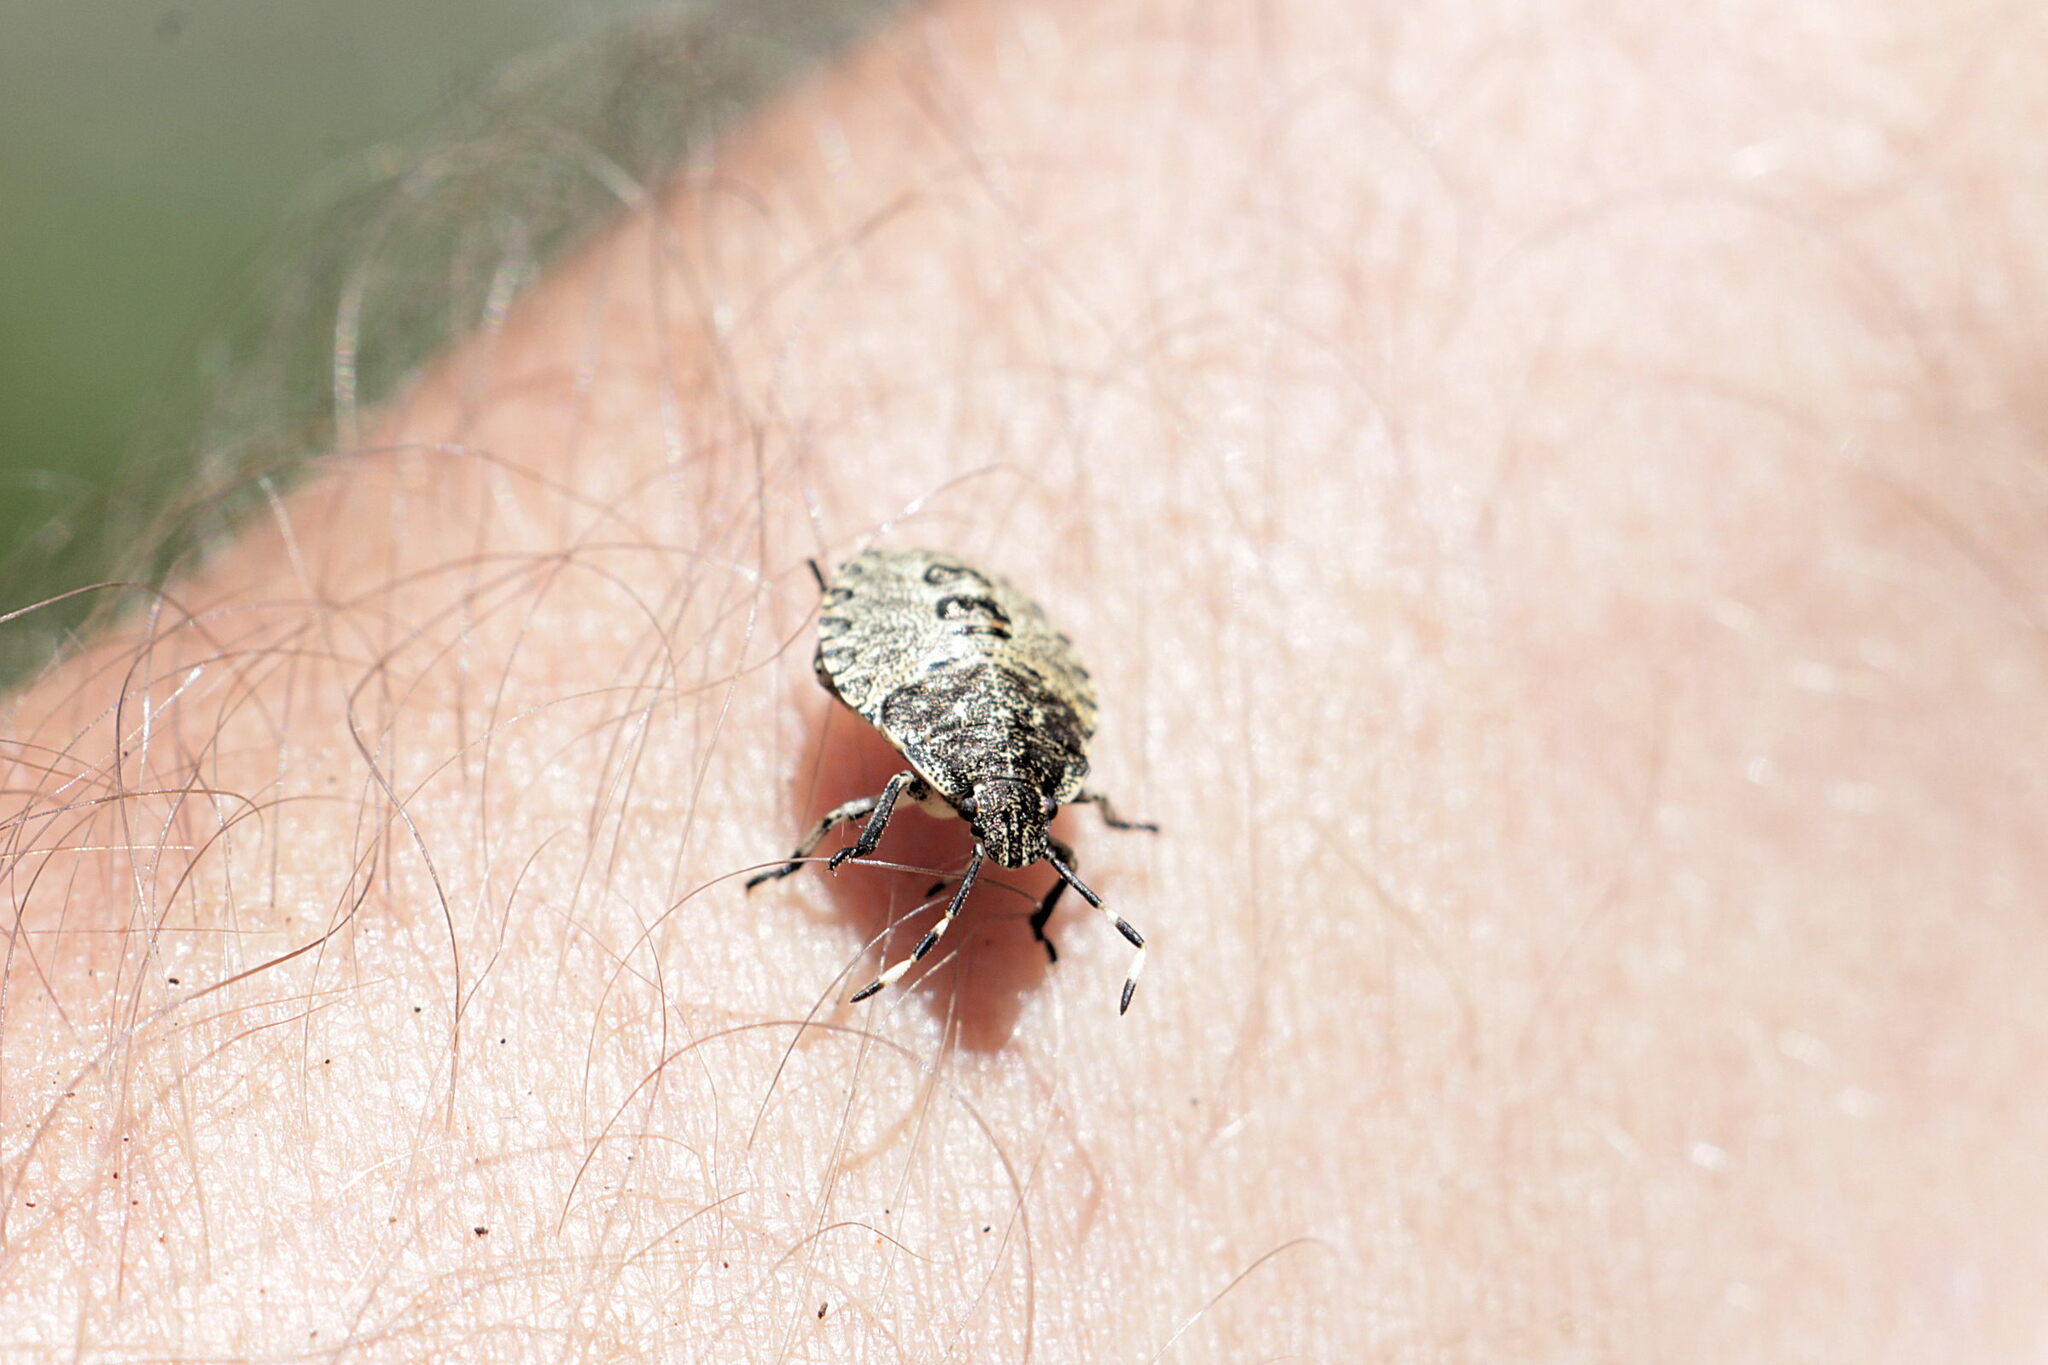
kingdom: Animalia
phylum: Arthropoda
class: Insecta
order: Hemiptera
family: Pentatomidae
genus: Rhaphigaster
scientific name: Rhaphigaster nebulosa
